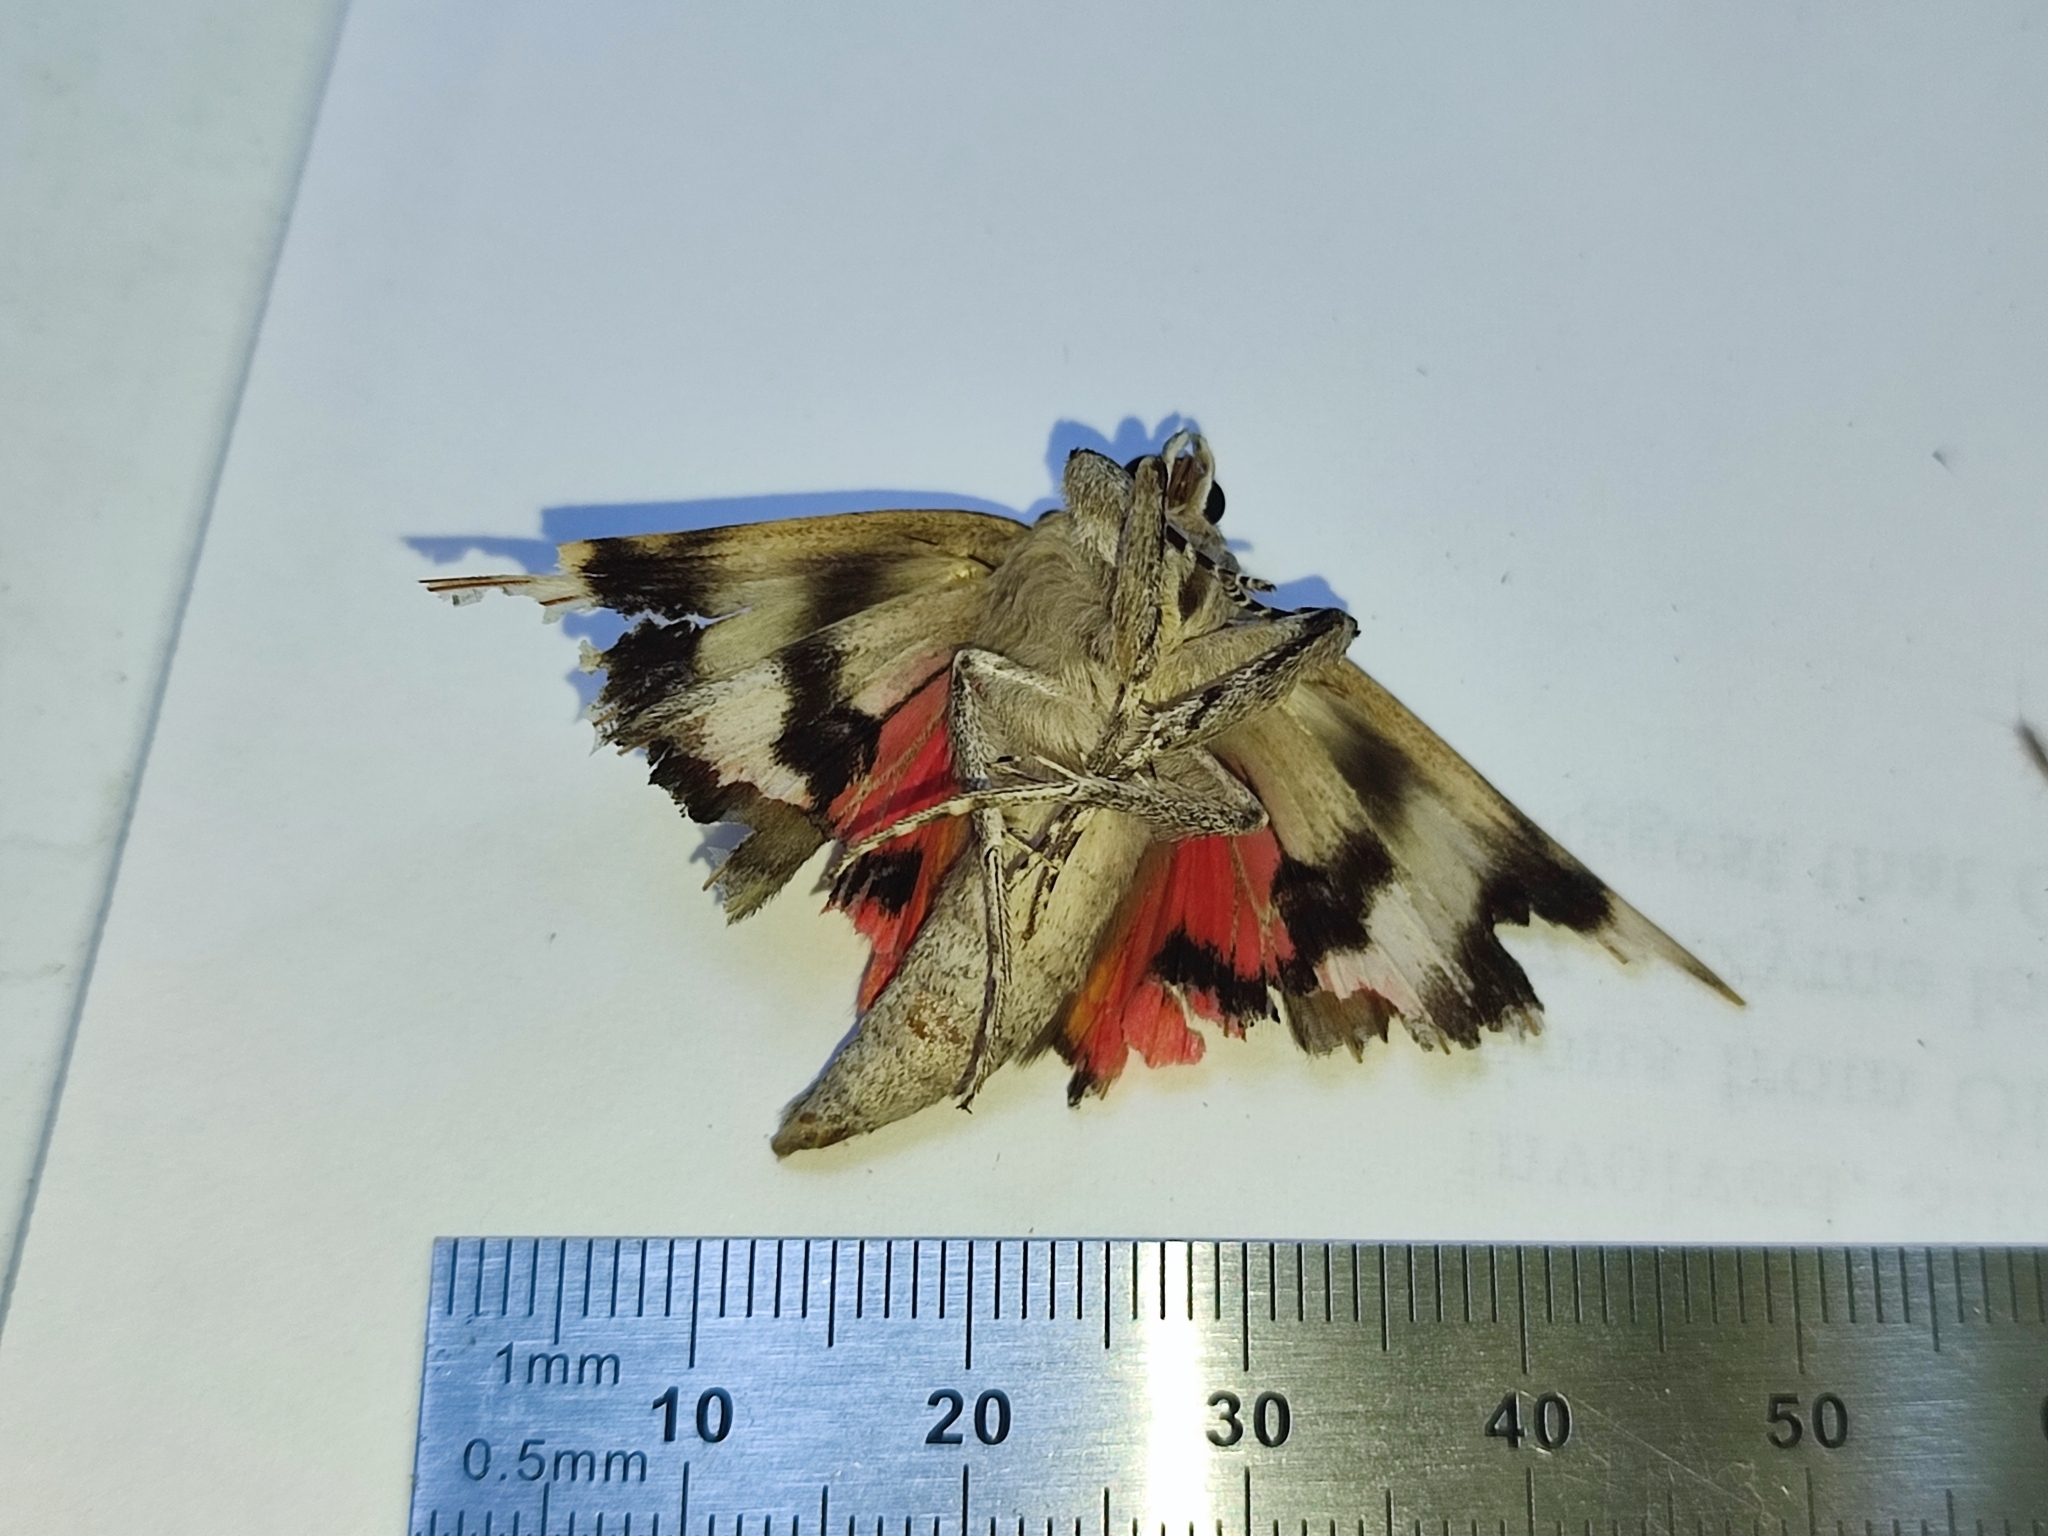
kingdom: Animalia
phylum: Arthropoda
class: Insecta
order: Lepidoptera
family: Erebidae
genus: Catocala
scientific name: Catocala electa
